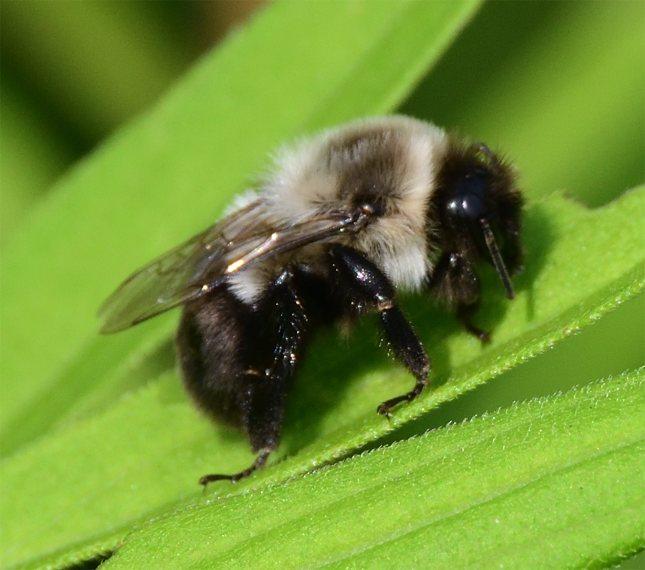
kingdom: Animalia
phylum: Arthropoda
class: Insecta
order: Hymenoptera
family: Apidae
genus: Bombus
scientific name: Bombus impatiens
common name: Common eastern bumble bee
